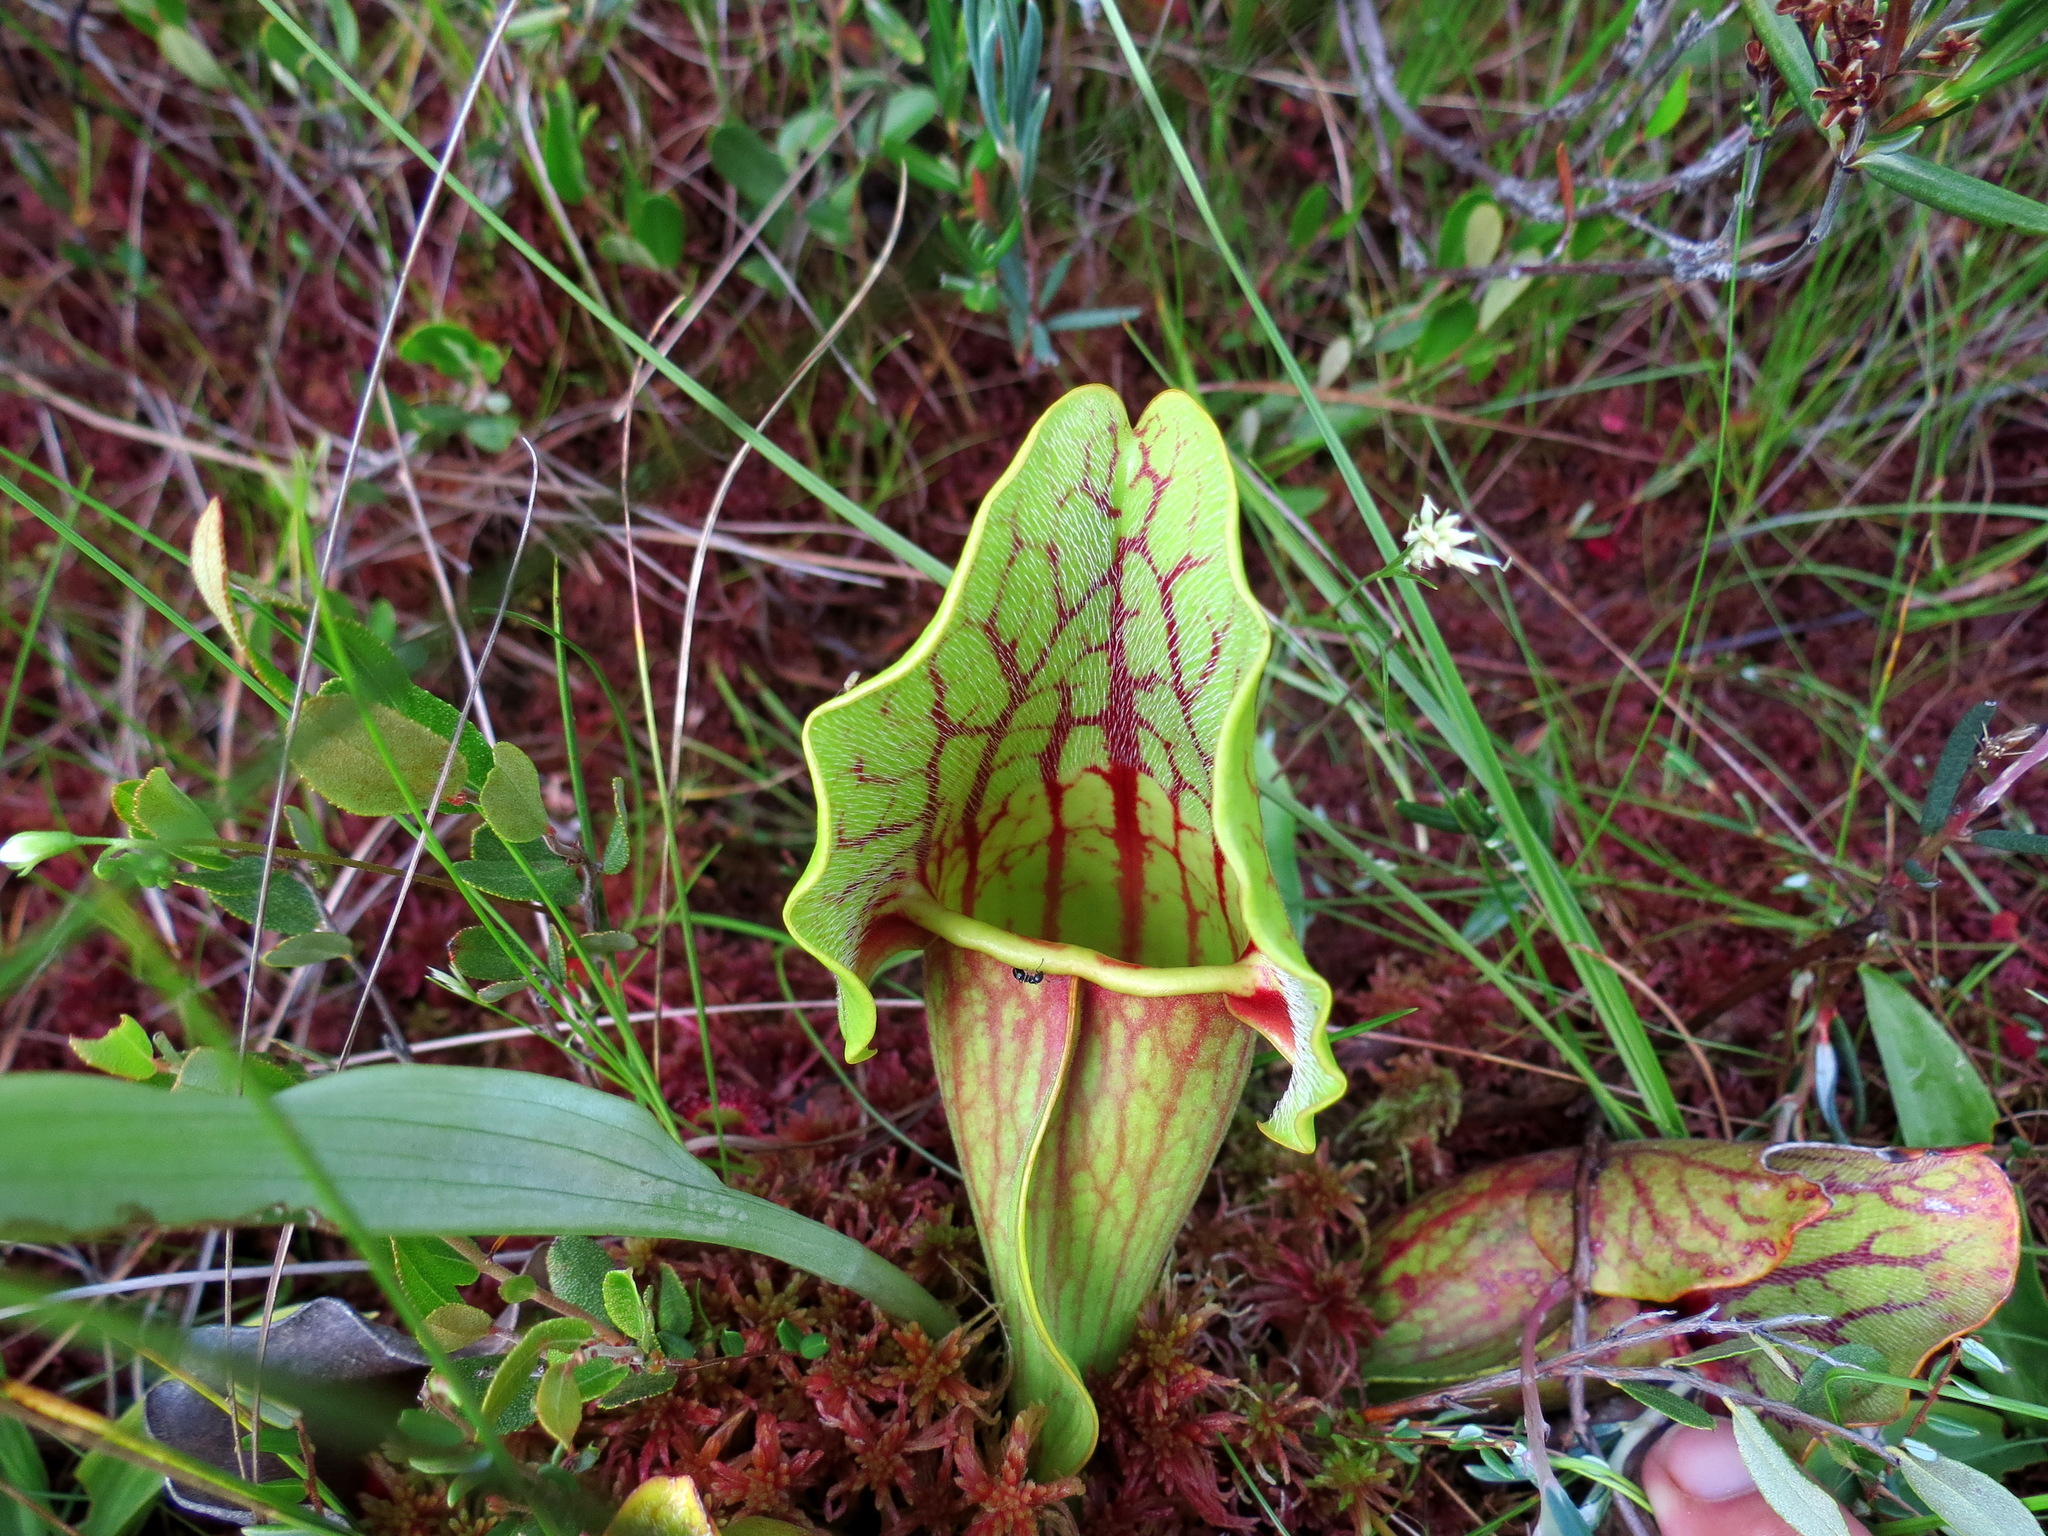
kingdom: Plantae
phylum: Tracheophyta
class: Magnoliopsida
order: Ericales
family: Sarraceniaceae
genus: Sarracenia
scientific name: Sarracenia purpurea
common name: Pitcherplant
